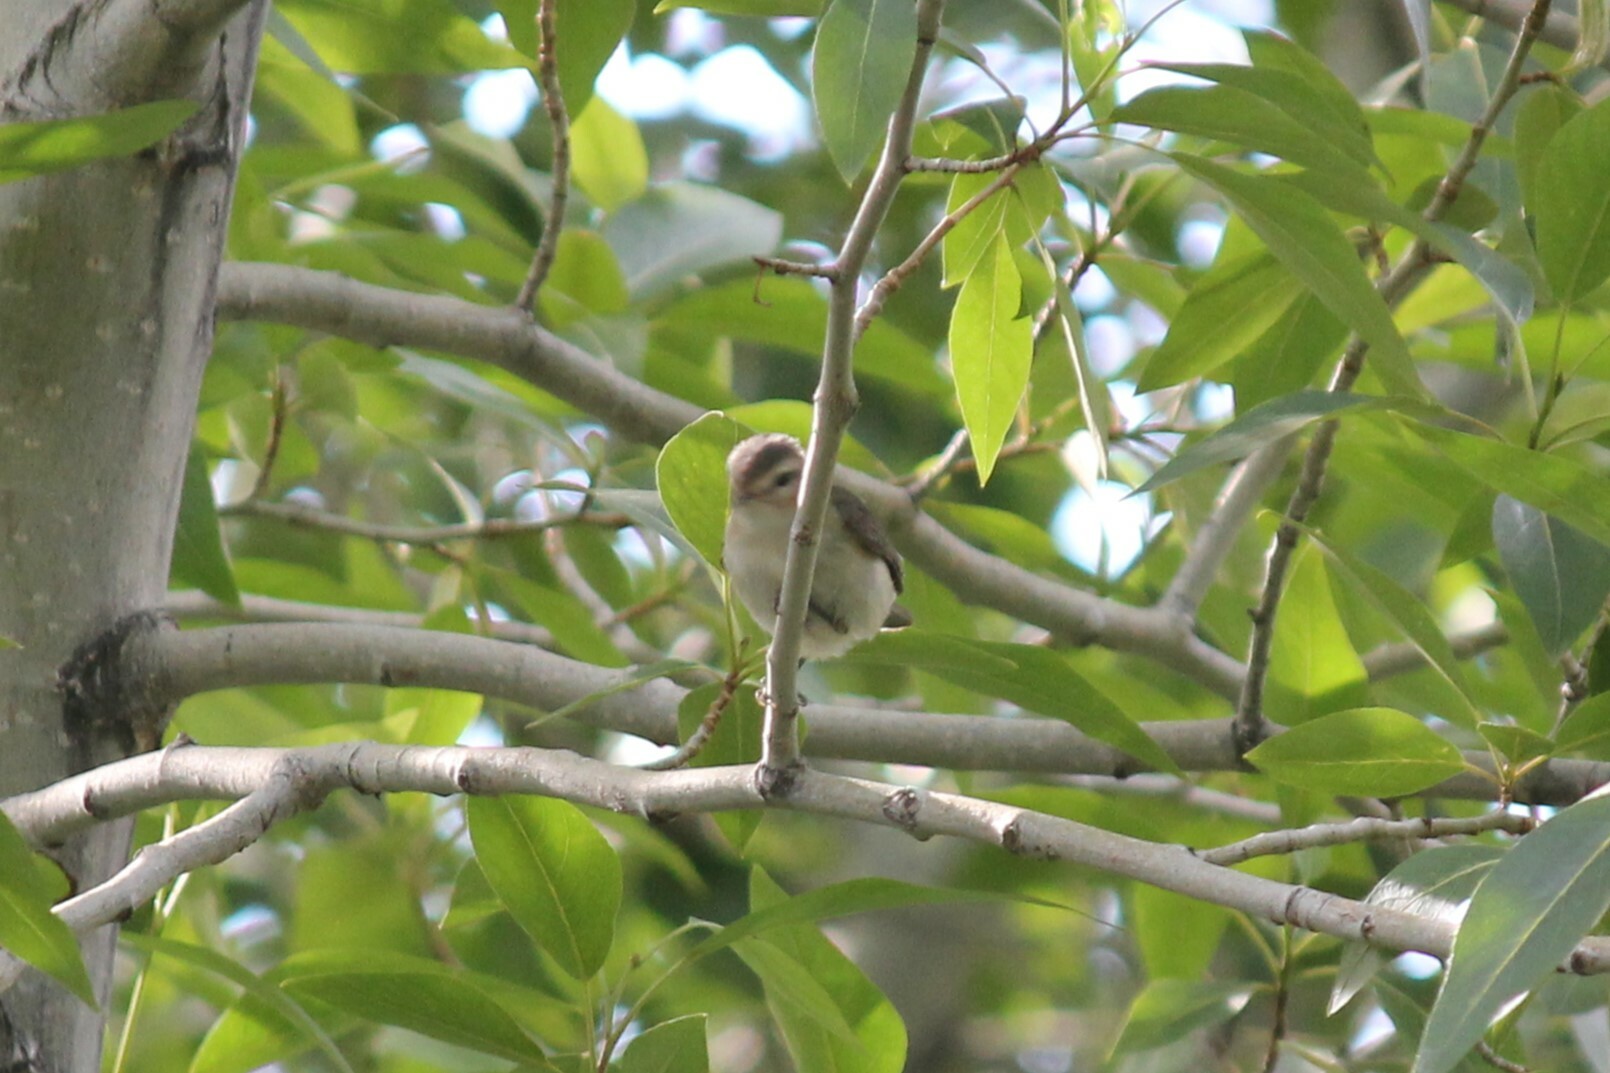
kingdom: Animalia
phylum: Chordata
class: Aves
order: Passeriformes
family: Vireonidae
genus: Vireo
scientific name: Vireo gilvus
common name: Warbling vireo
